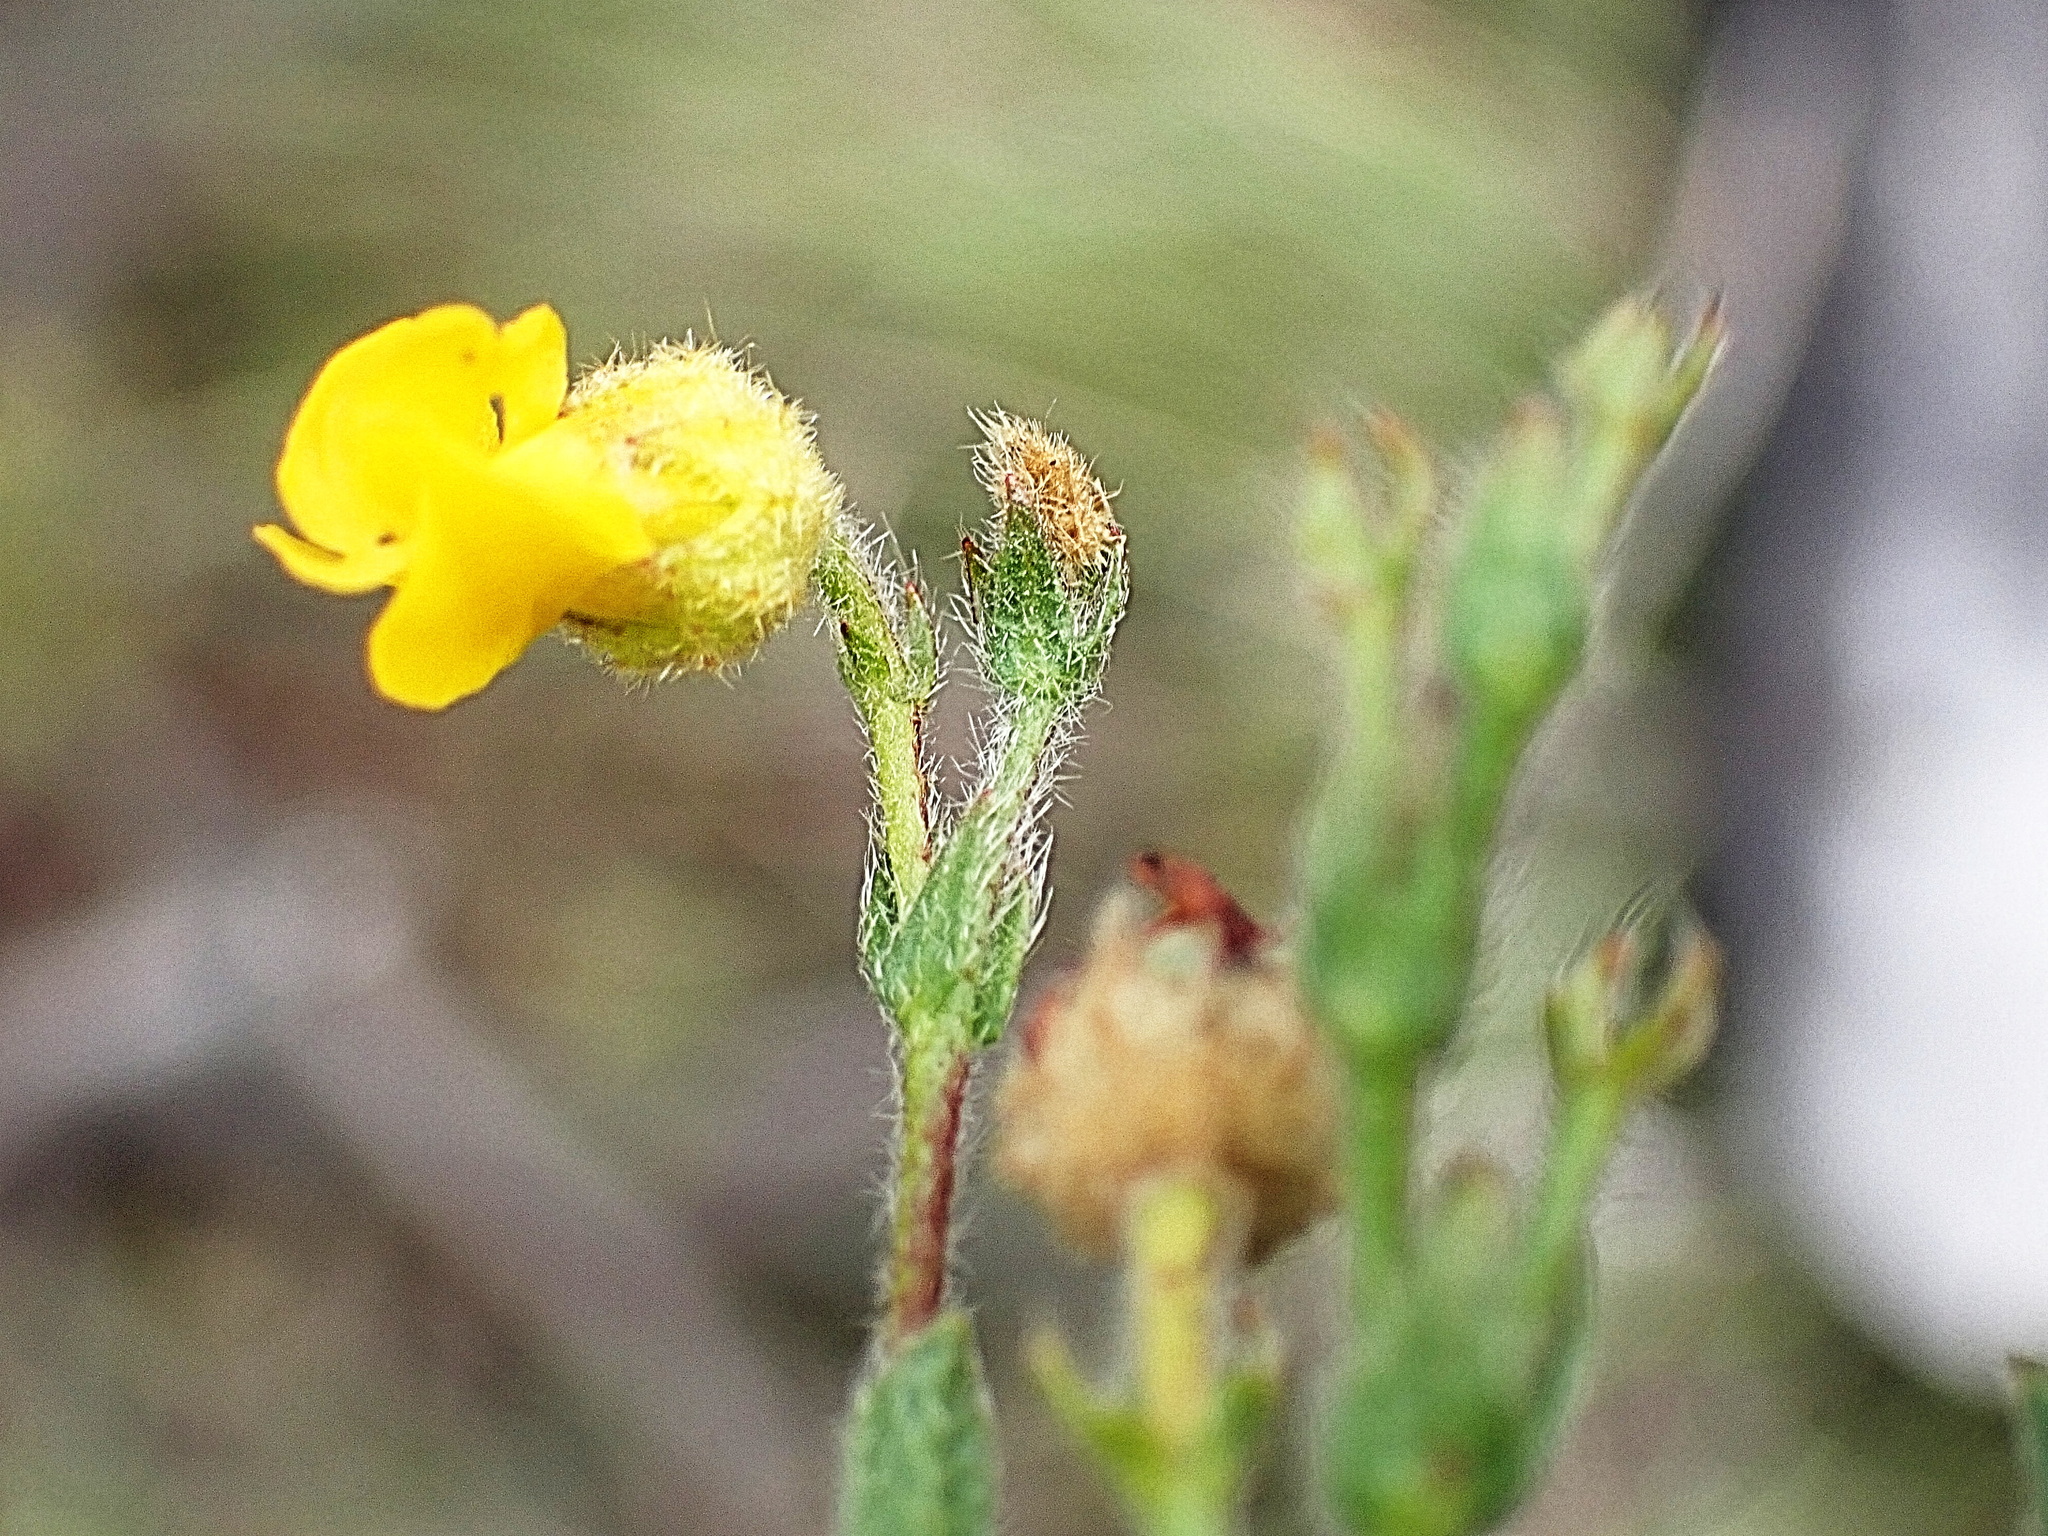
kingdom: Plantae
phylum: Tracheophyta
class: Magnoliopsida
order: Malvales
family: Malvaceae
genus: Hermannia
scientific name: Hermannia stipulacea
